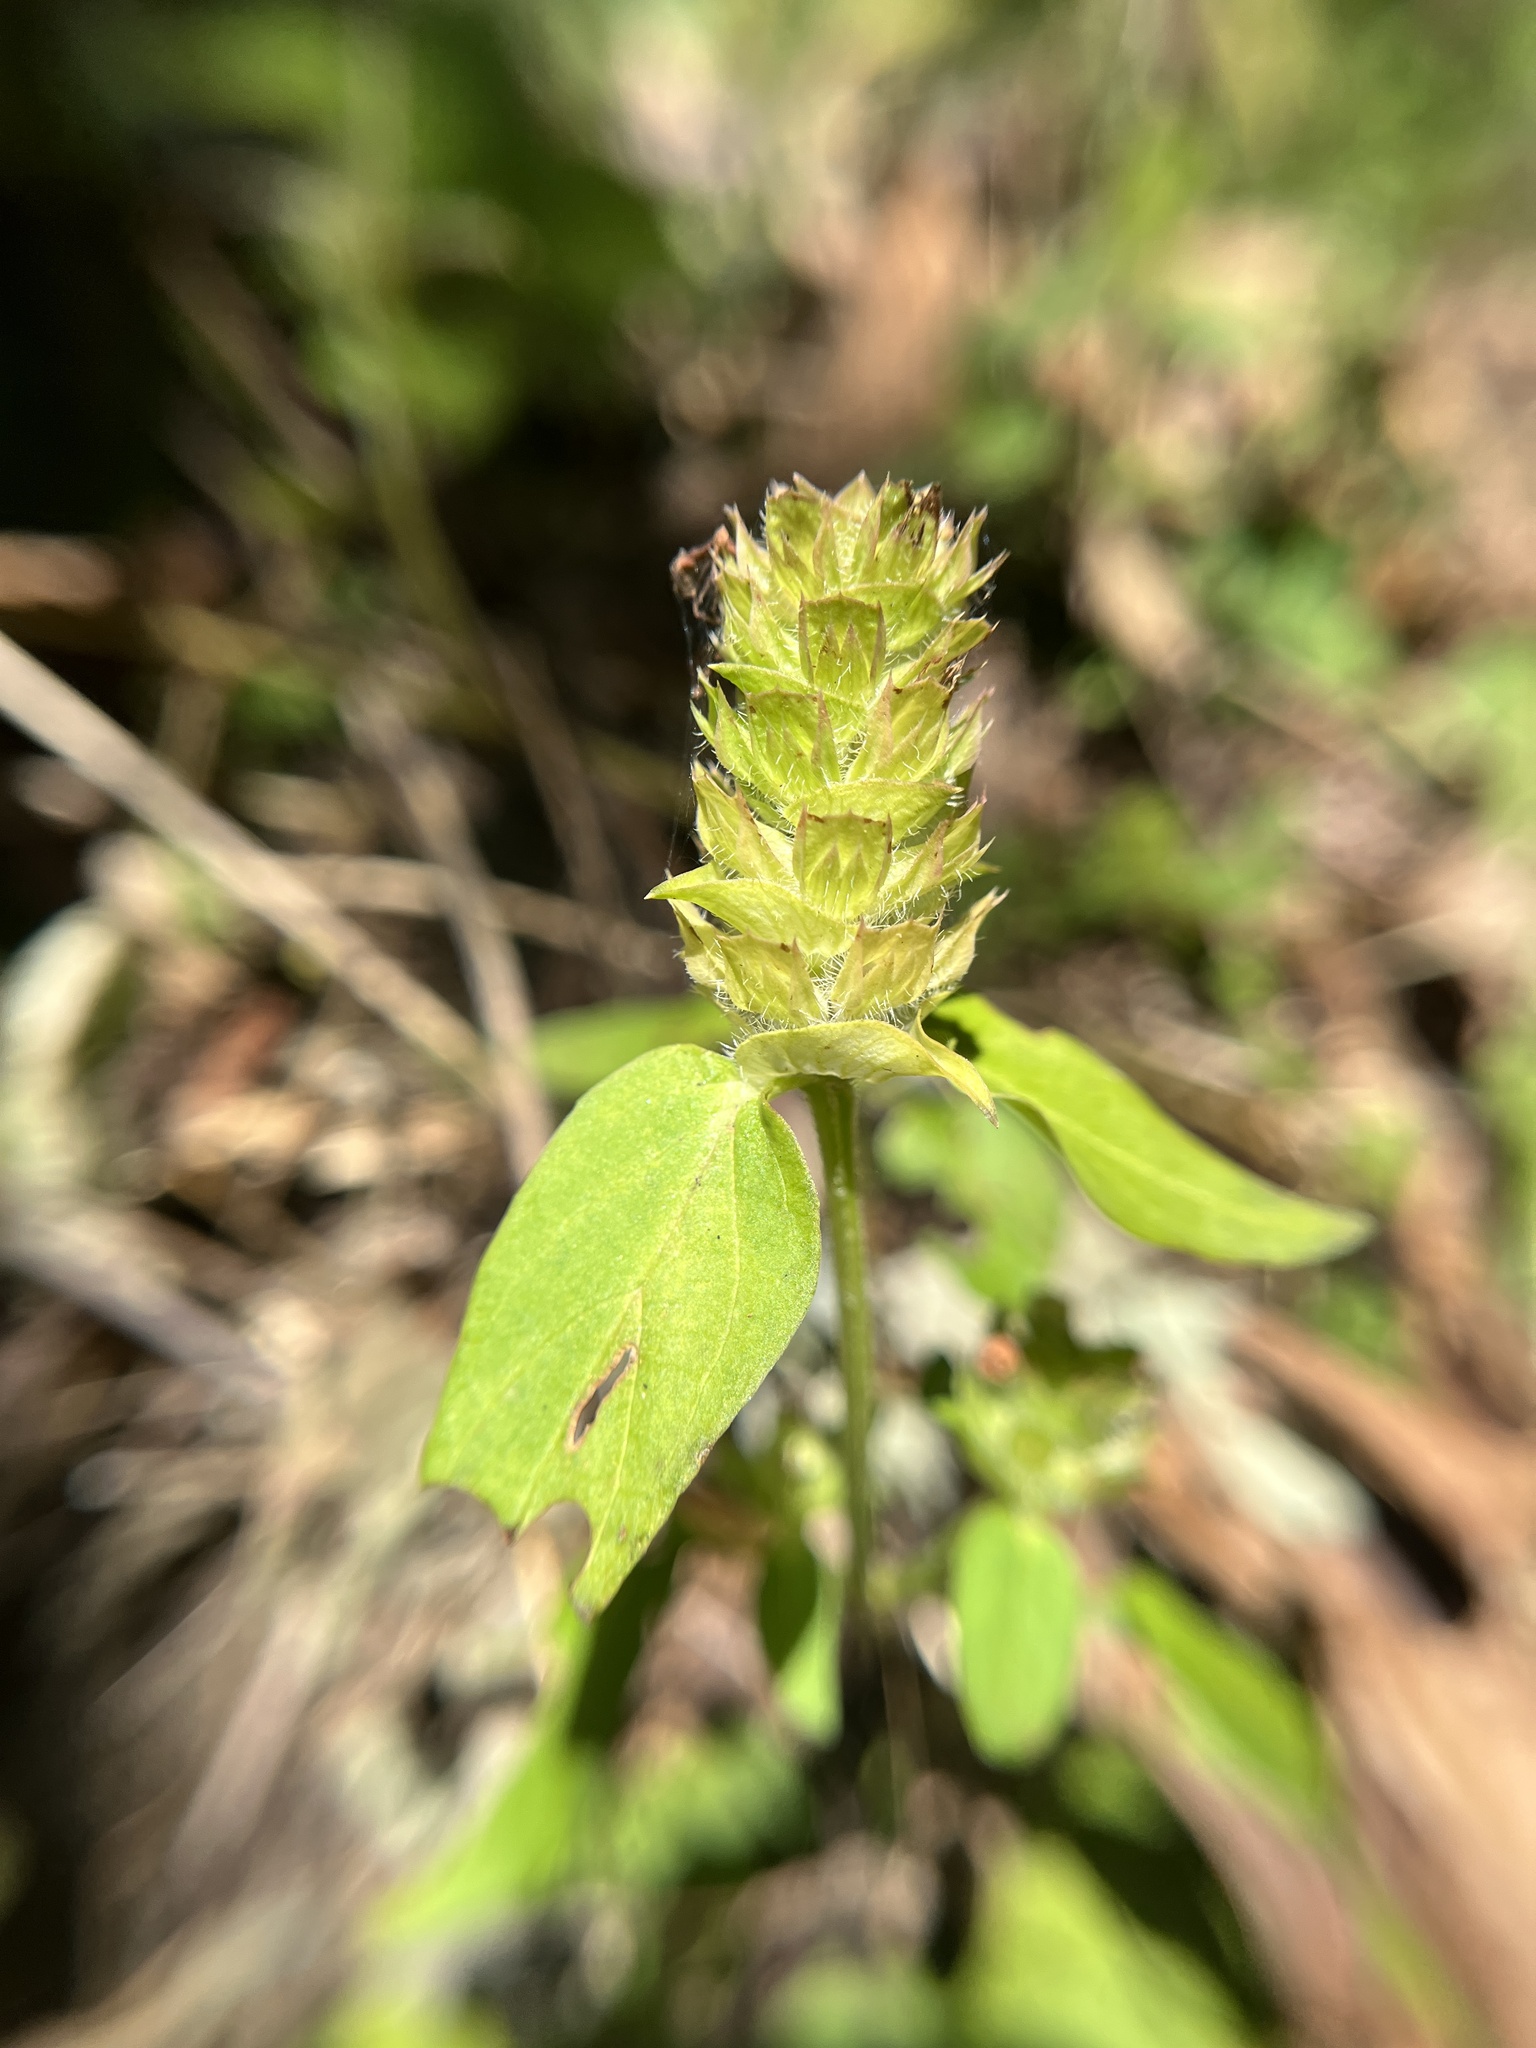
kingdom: Plantae
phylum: Tracheophyta
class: Magnoliopsida
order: Lamiales
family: Lamiaceae
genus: Prunella
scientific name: Prunella vulgaris
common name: Heal-all
